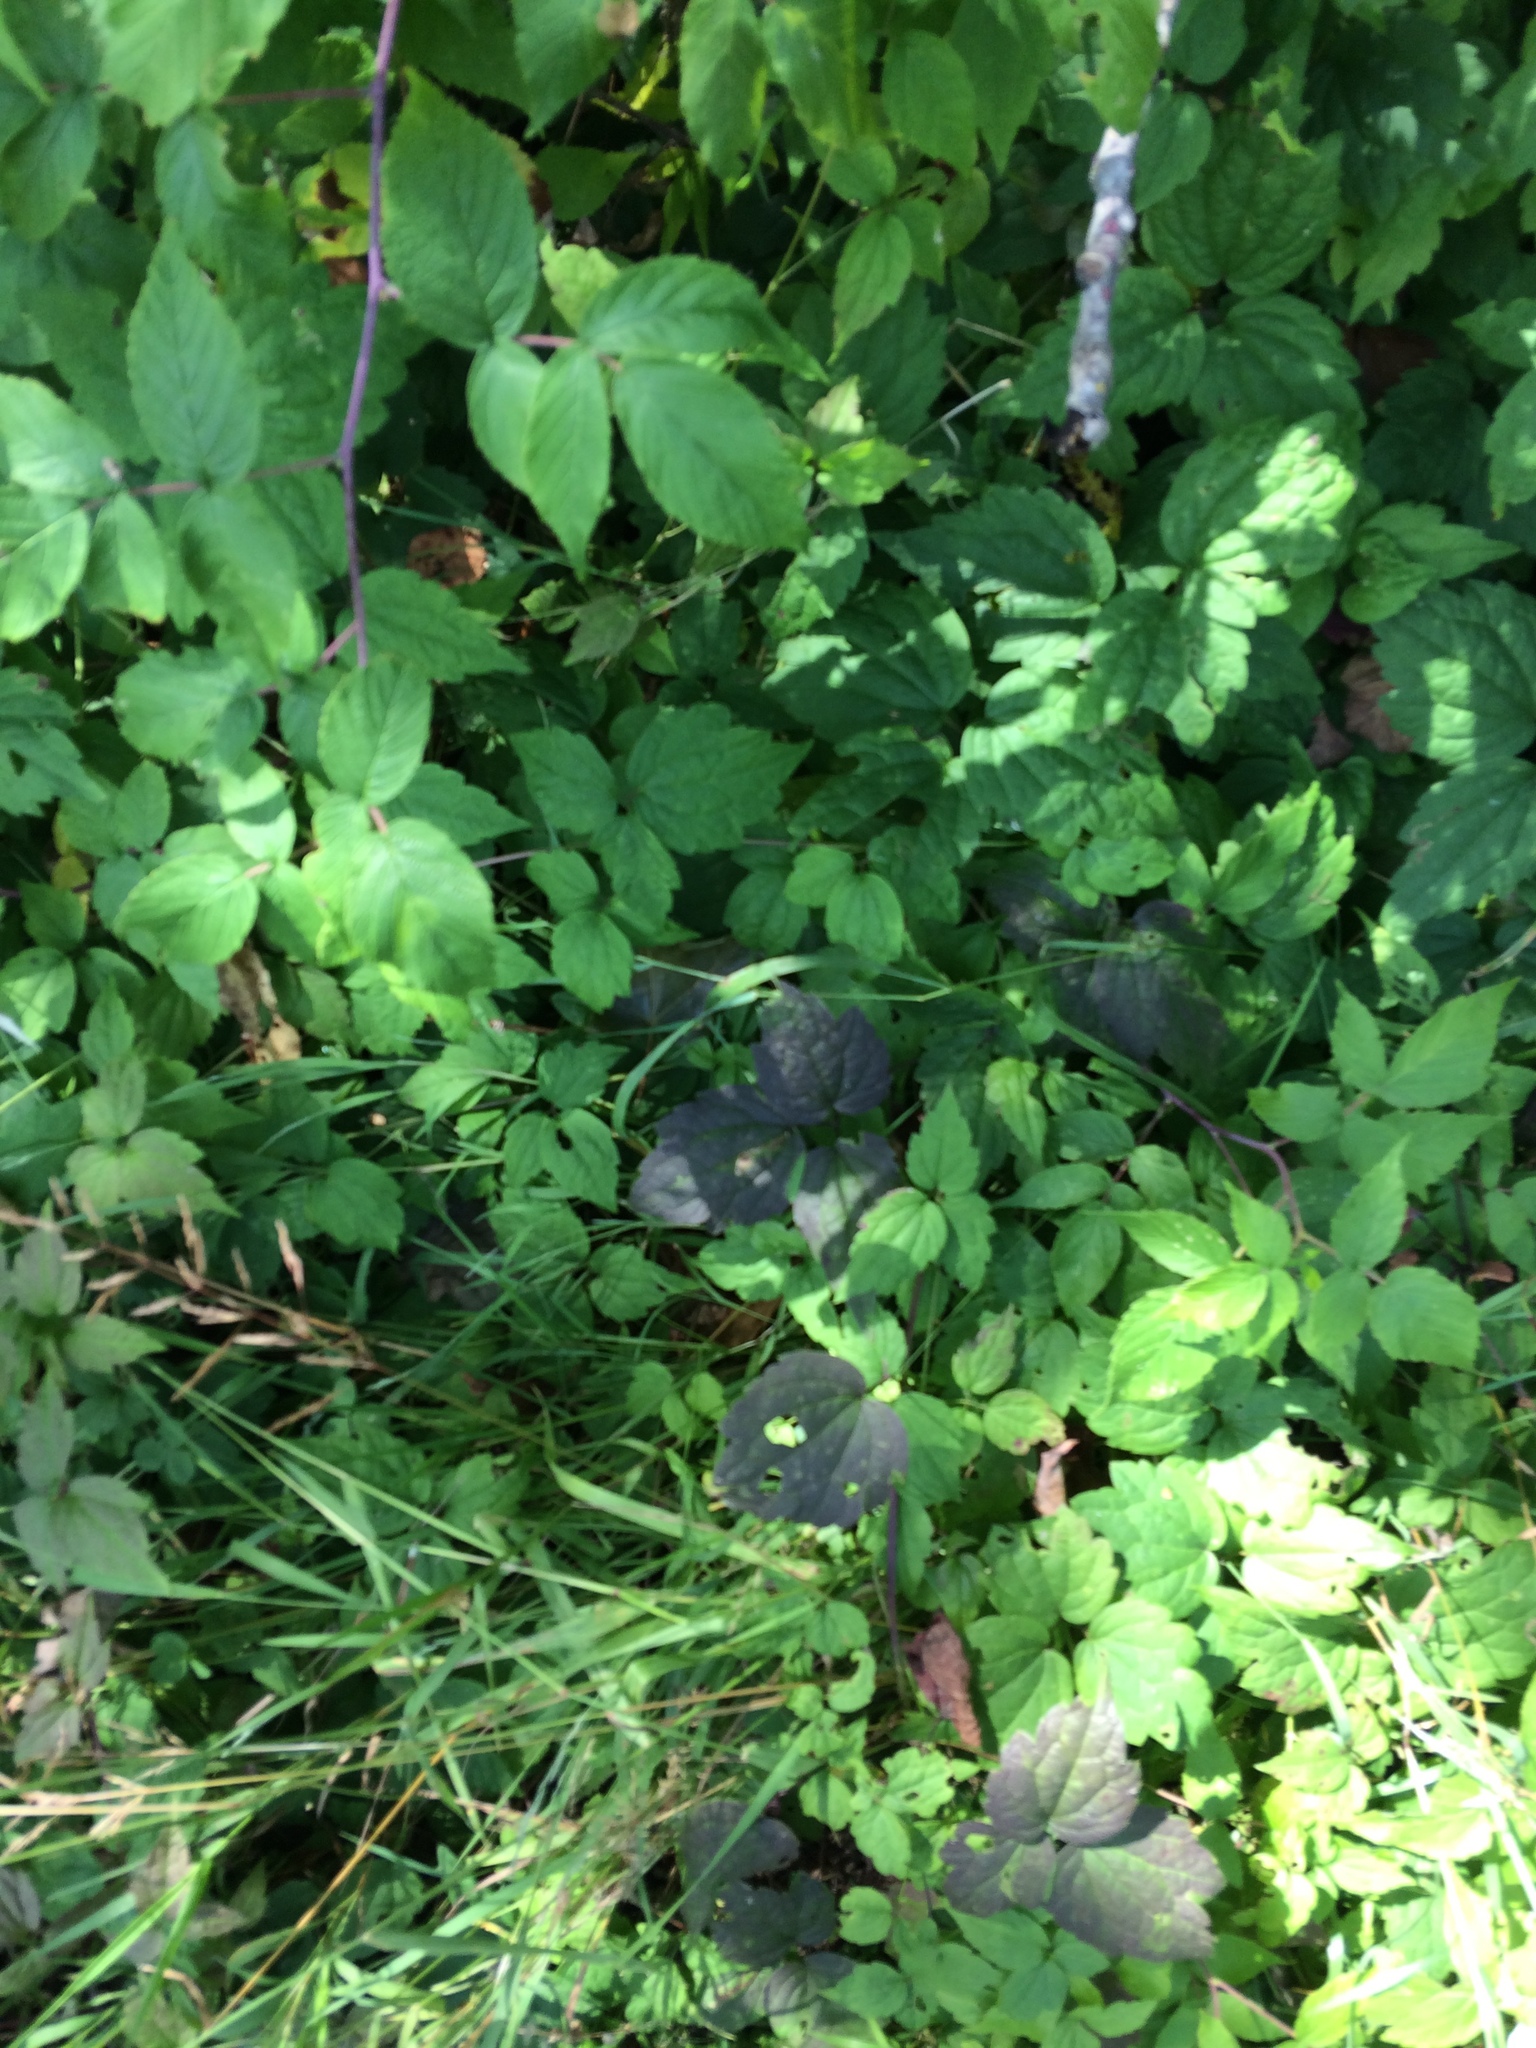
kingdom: Plantae
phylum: Tracheophyta
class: Magnoliopsida
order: Ranunculales
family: Ranunculaceae
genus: Clematis
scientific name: Clematis virginiana
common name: Virgin's-bower
